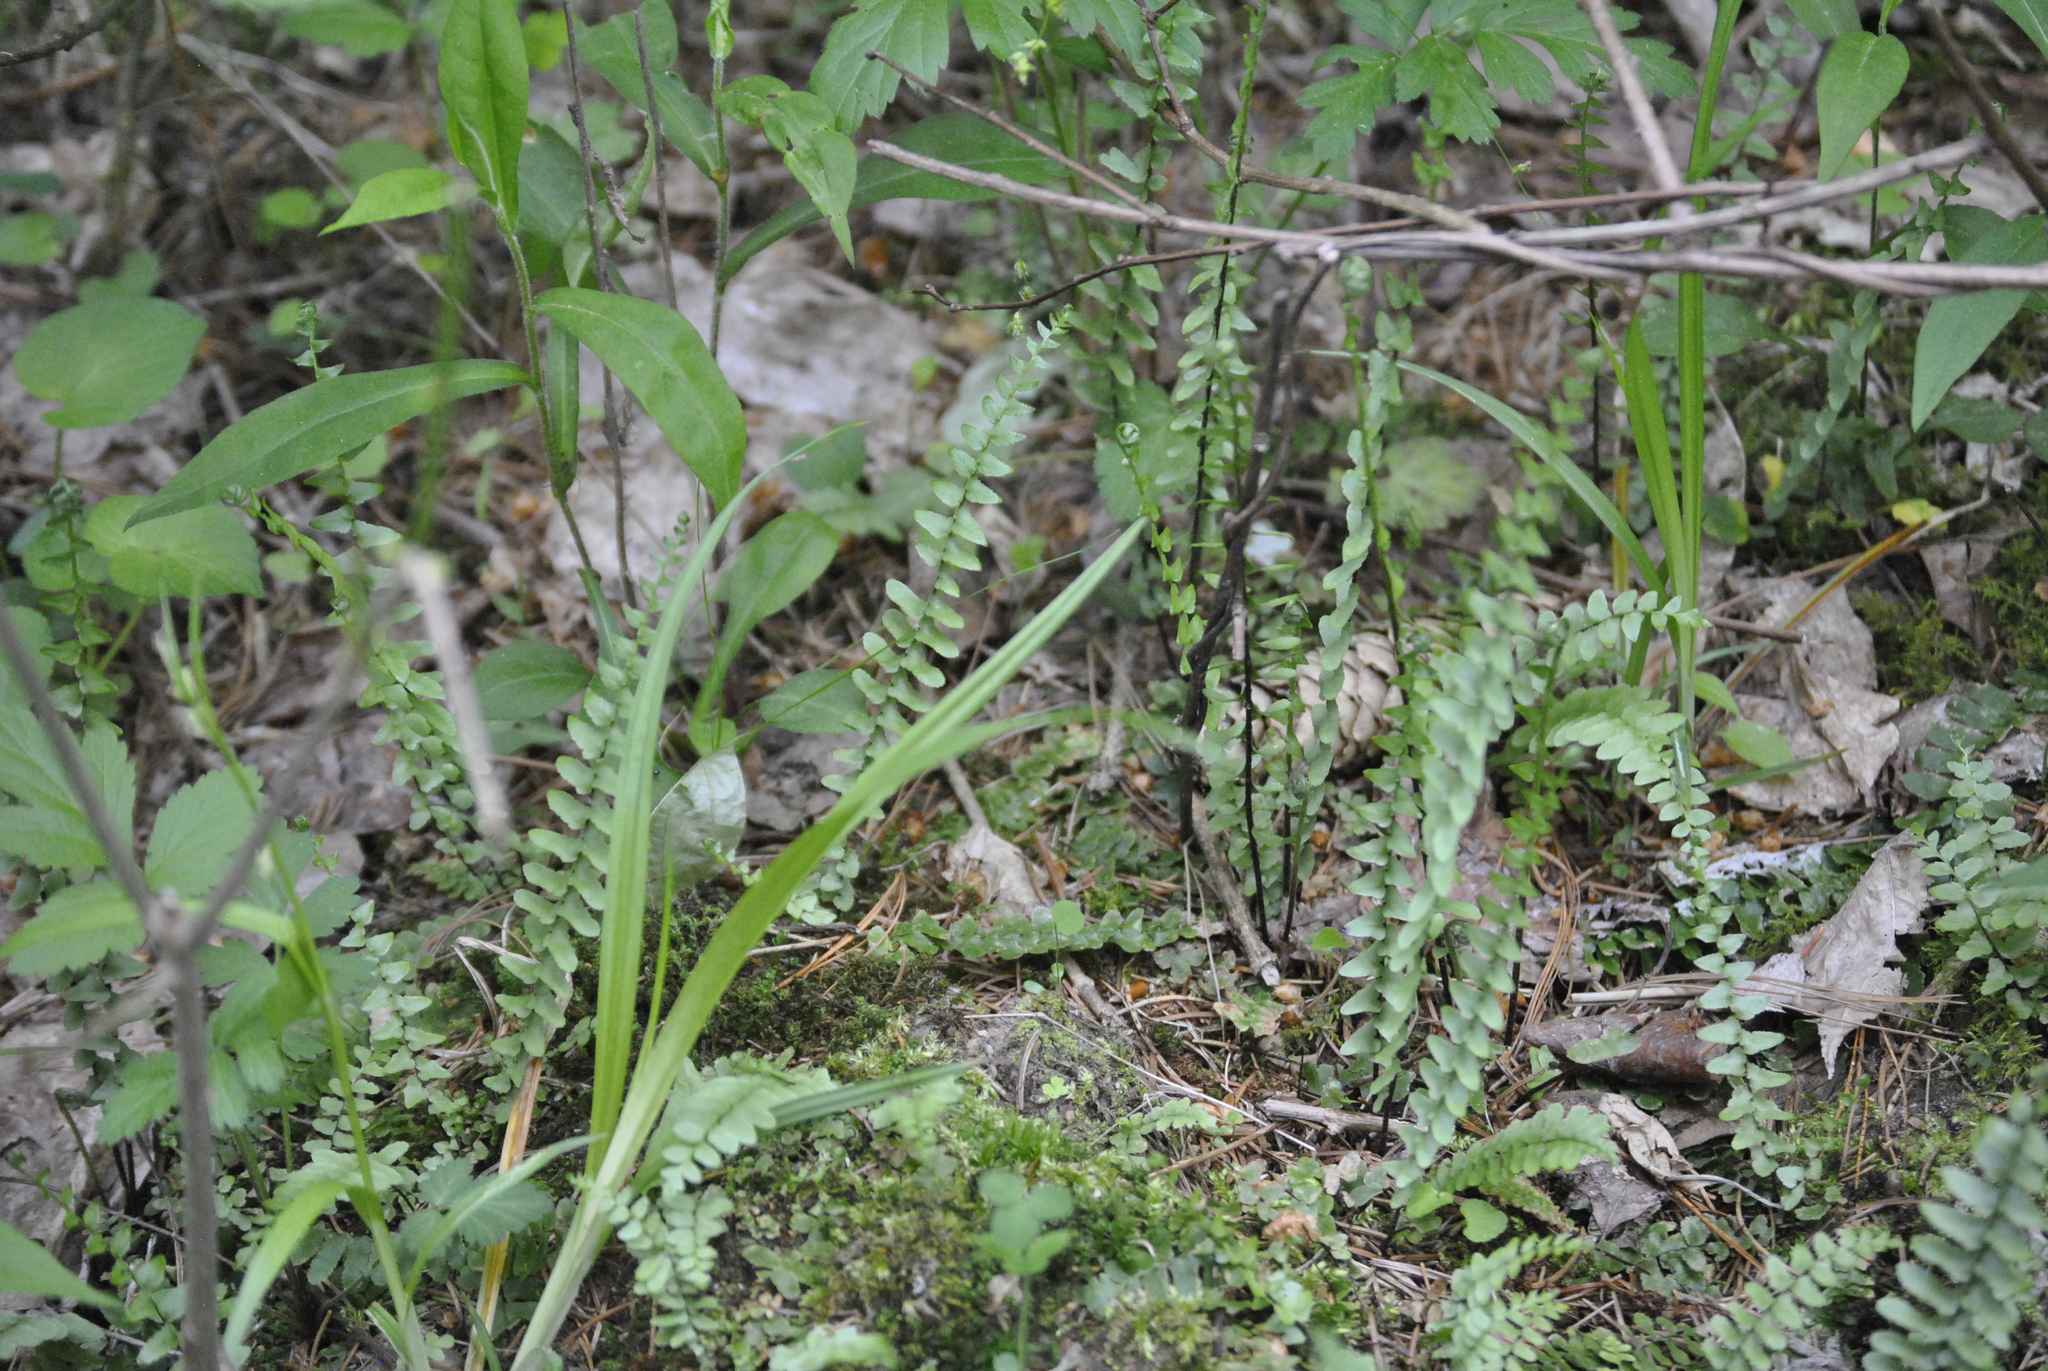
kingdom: Plantae
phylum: Tracheophyta
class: Polypodiopsida
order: Polypodiales
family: Aspleniaceae
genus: Asplenium
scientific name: Asplenium platyneuron
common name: Ebony spleenwort
